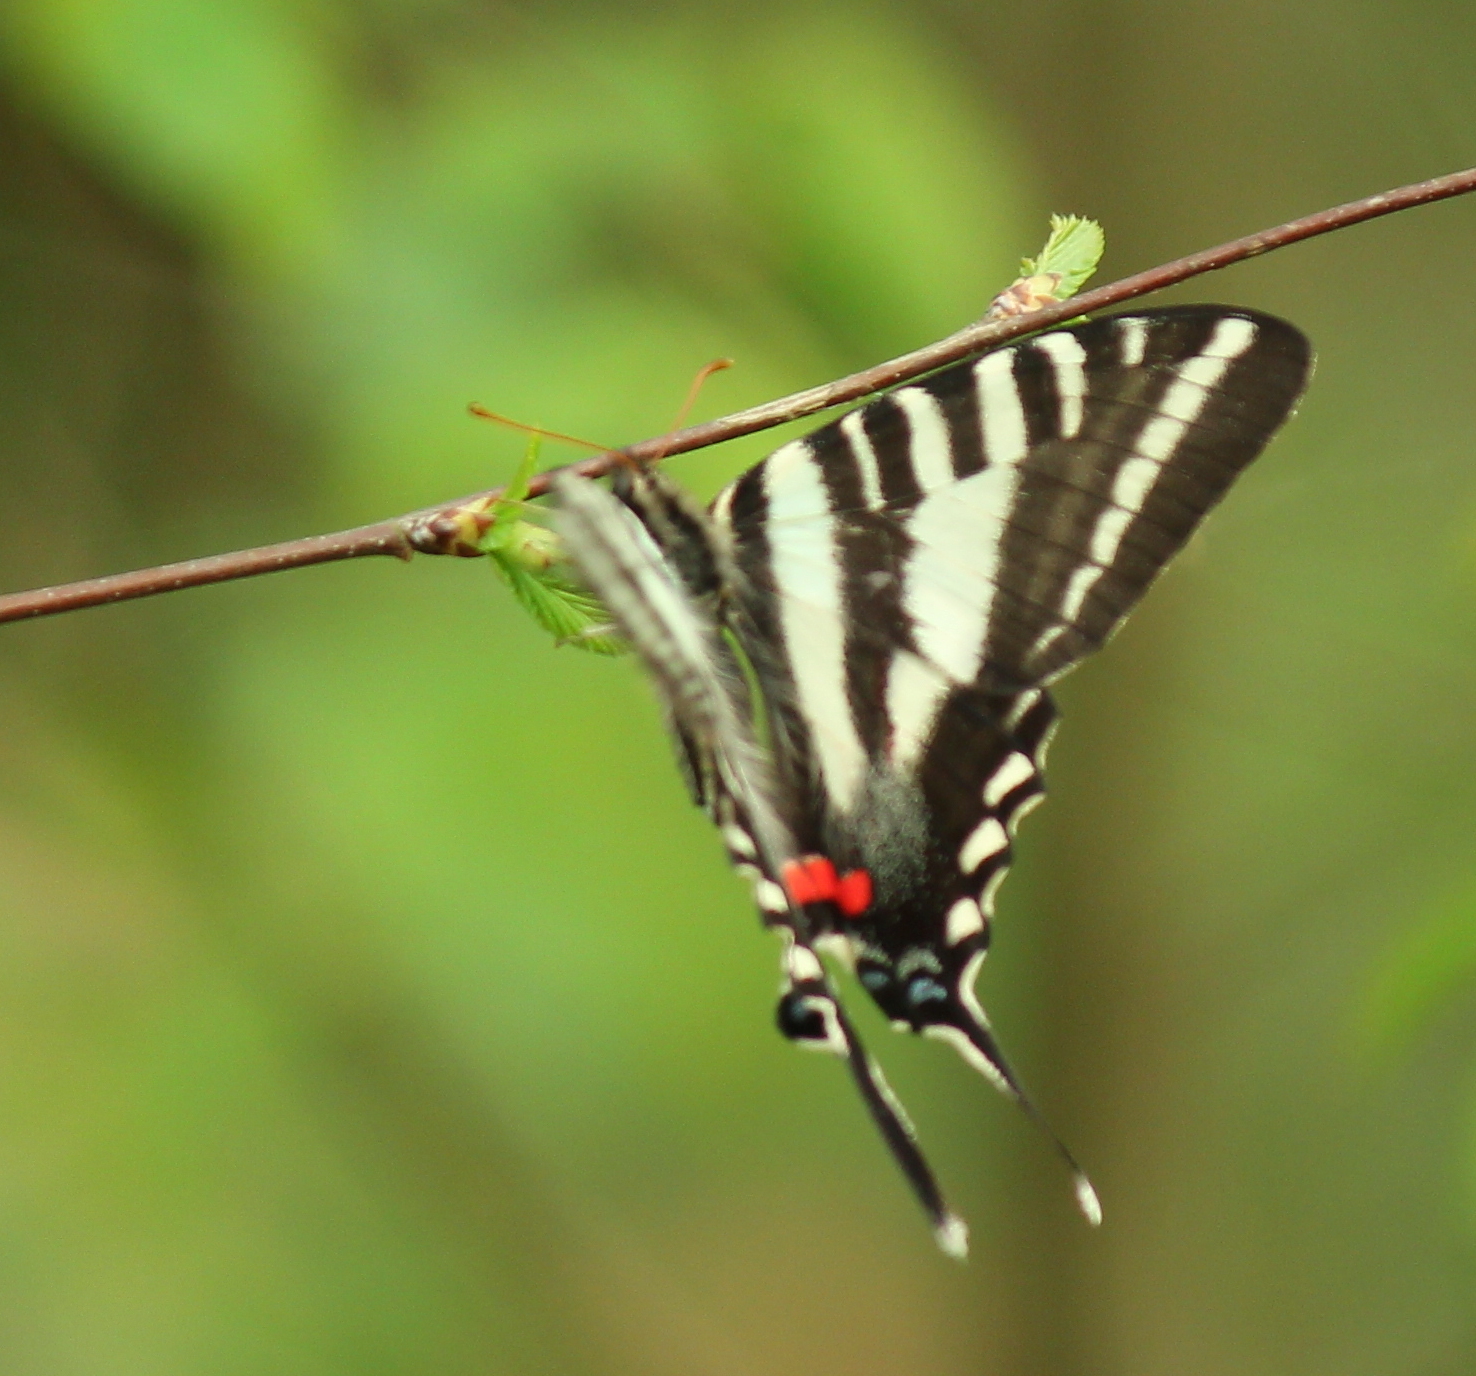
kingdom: Animalia
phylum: Arthropoda
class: Insecta
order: Lepidoptera
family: Papilionidae
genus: Protographium
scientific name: Protographium marcellus
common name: Zebra swallowtail
